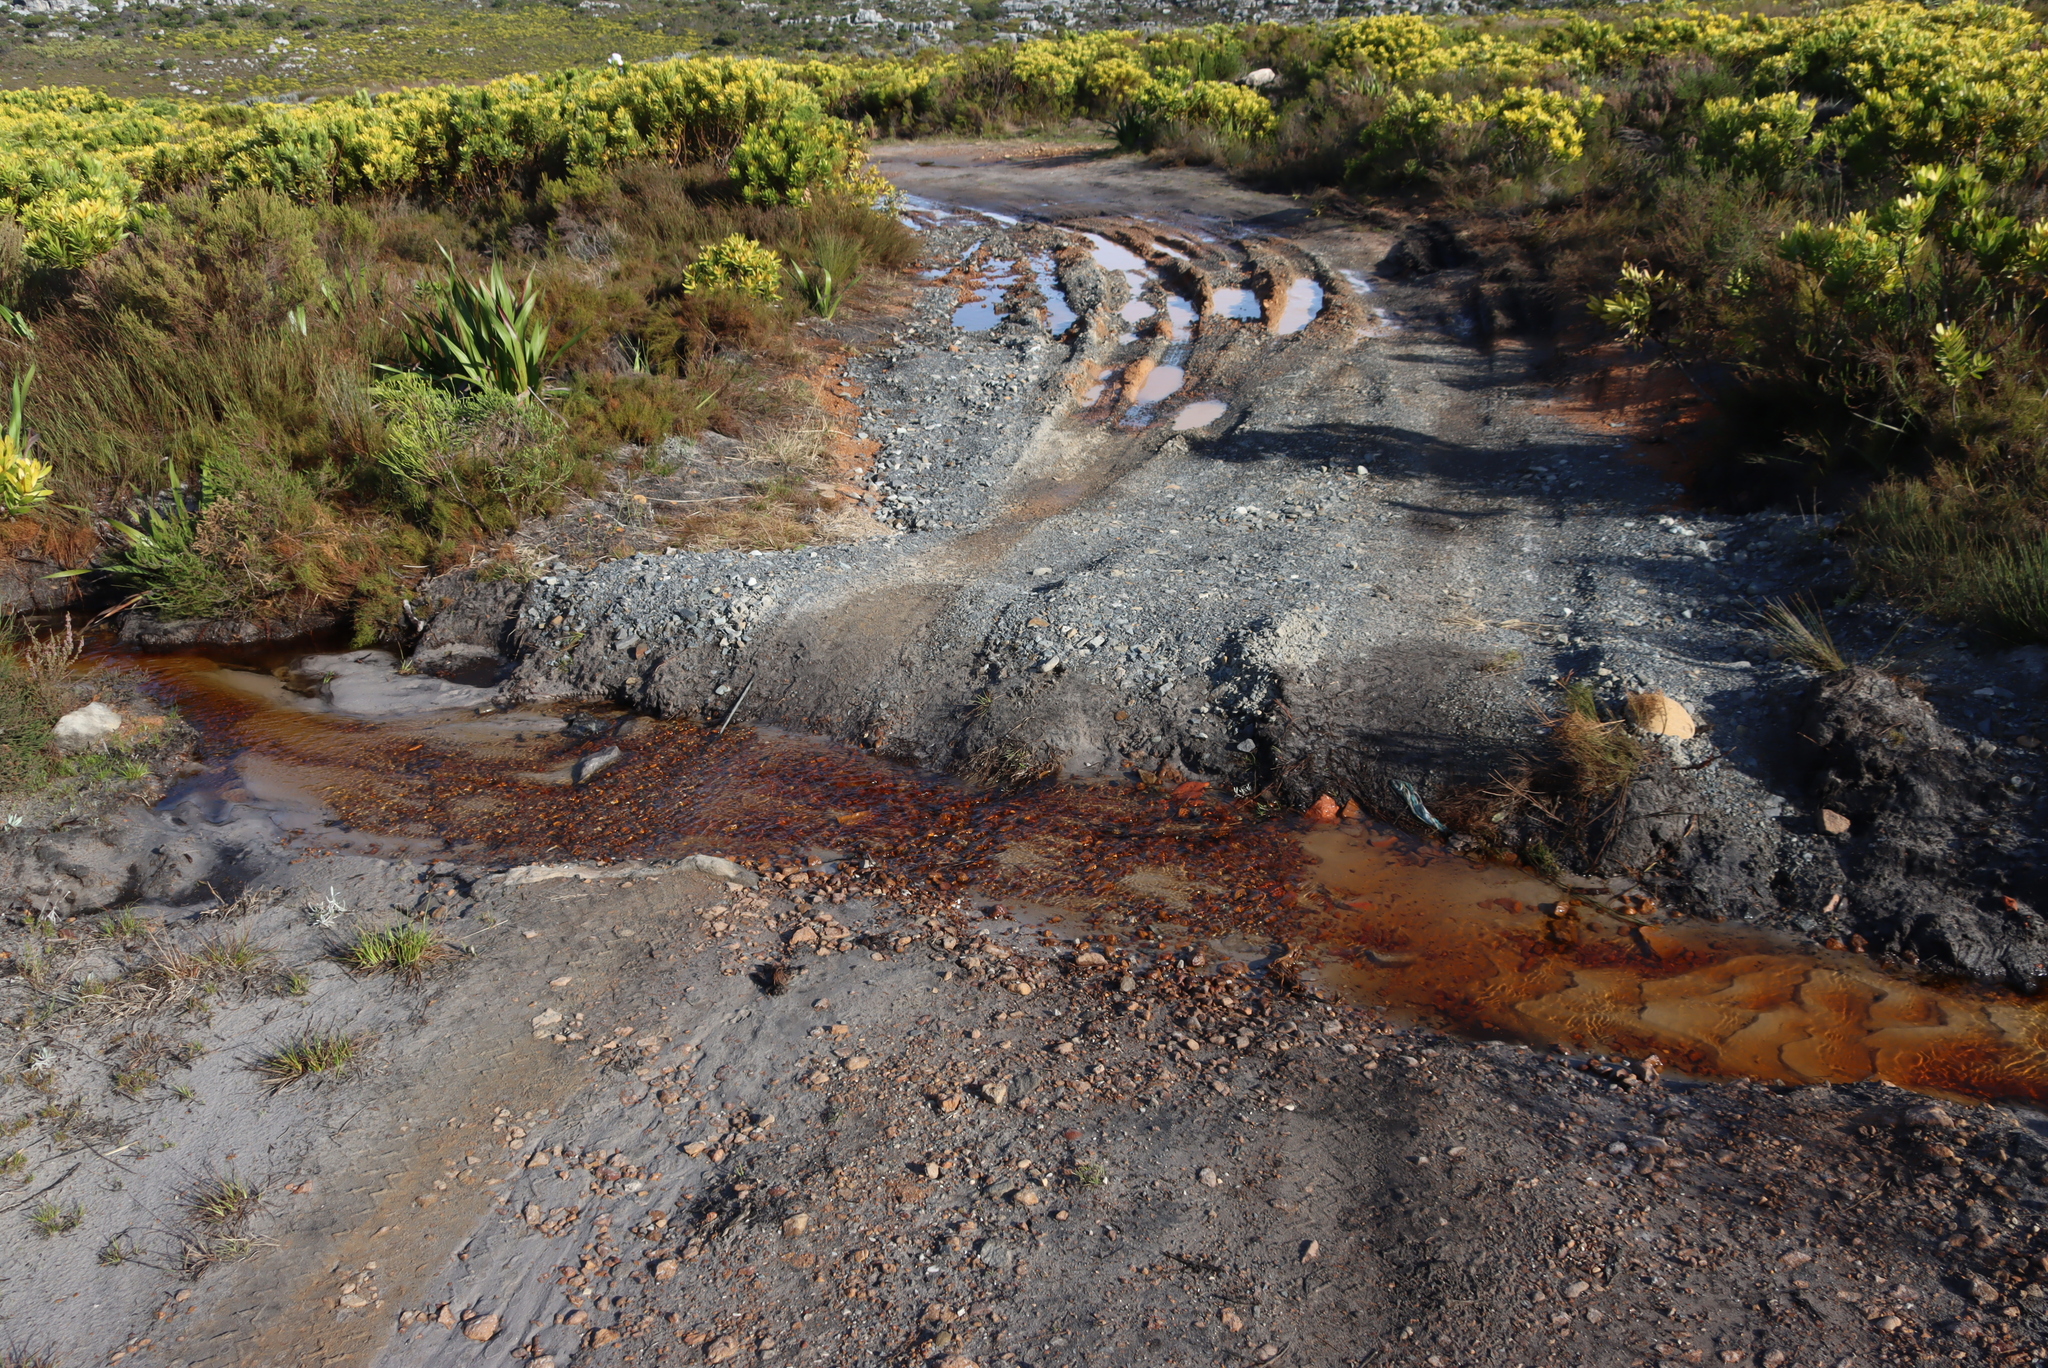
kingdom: Plantae
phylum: Tracheophyta
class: Magnoliopsida
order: Proteales
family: Proteaceae
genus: Leucadendron
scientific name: Leucadendron laureolum
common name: Golden sunshinebush
